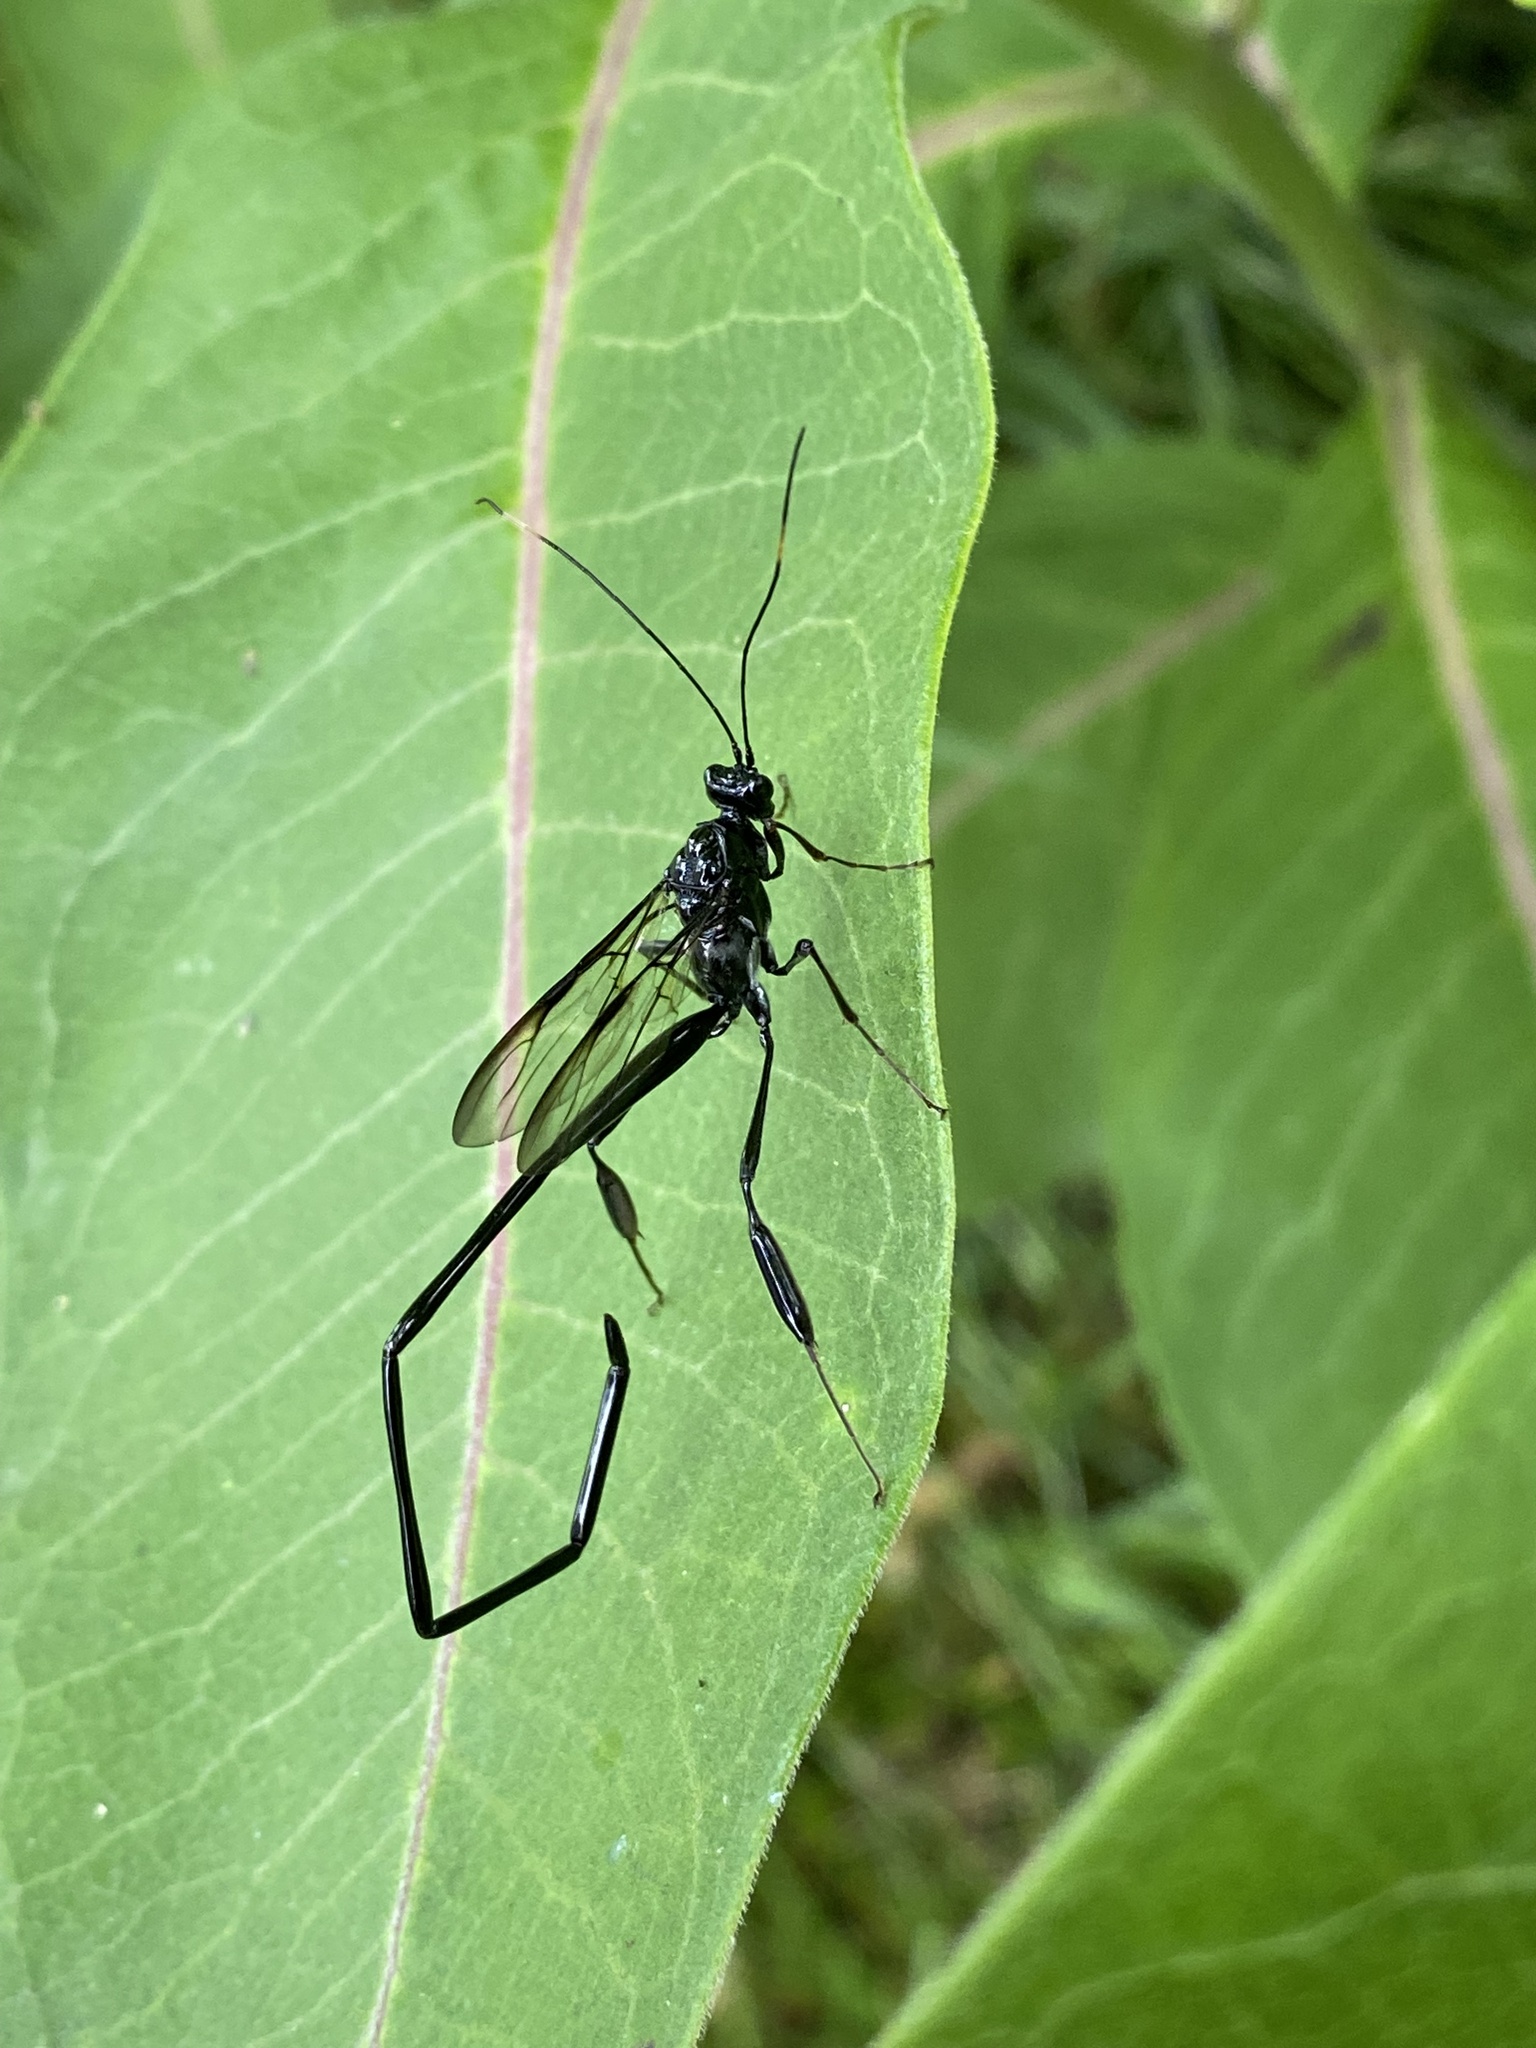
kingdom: Animalia
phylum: Arthropoda
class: Insecta
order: Hymenoptera
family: Pelecinidae
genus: Pelecinus
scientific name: Pelecinus polyturator
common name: American pelecinid wasp
